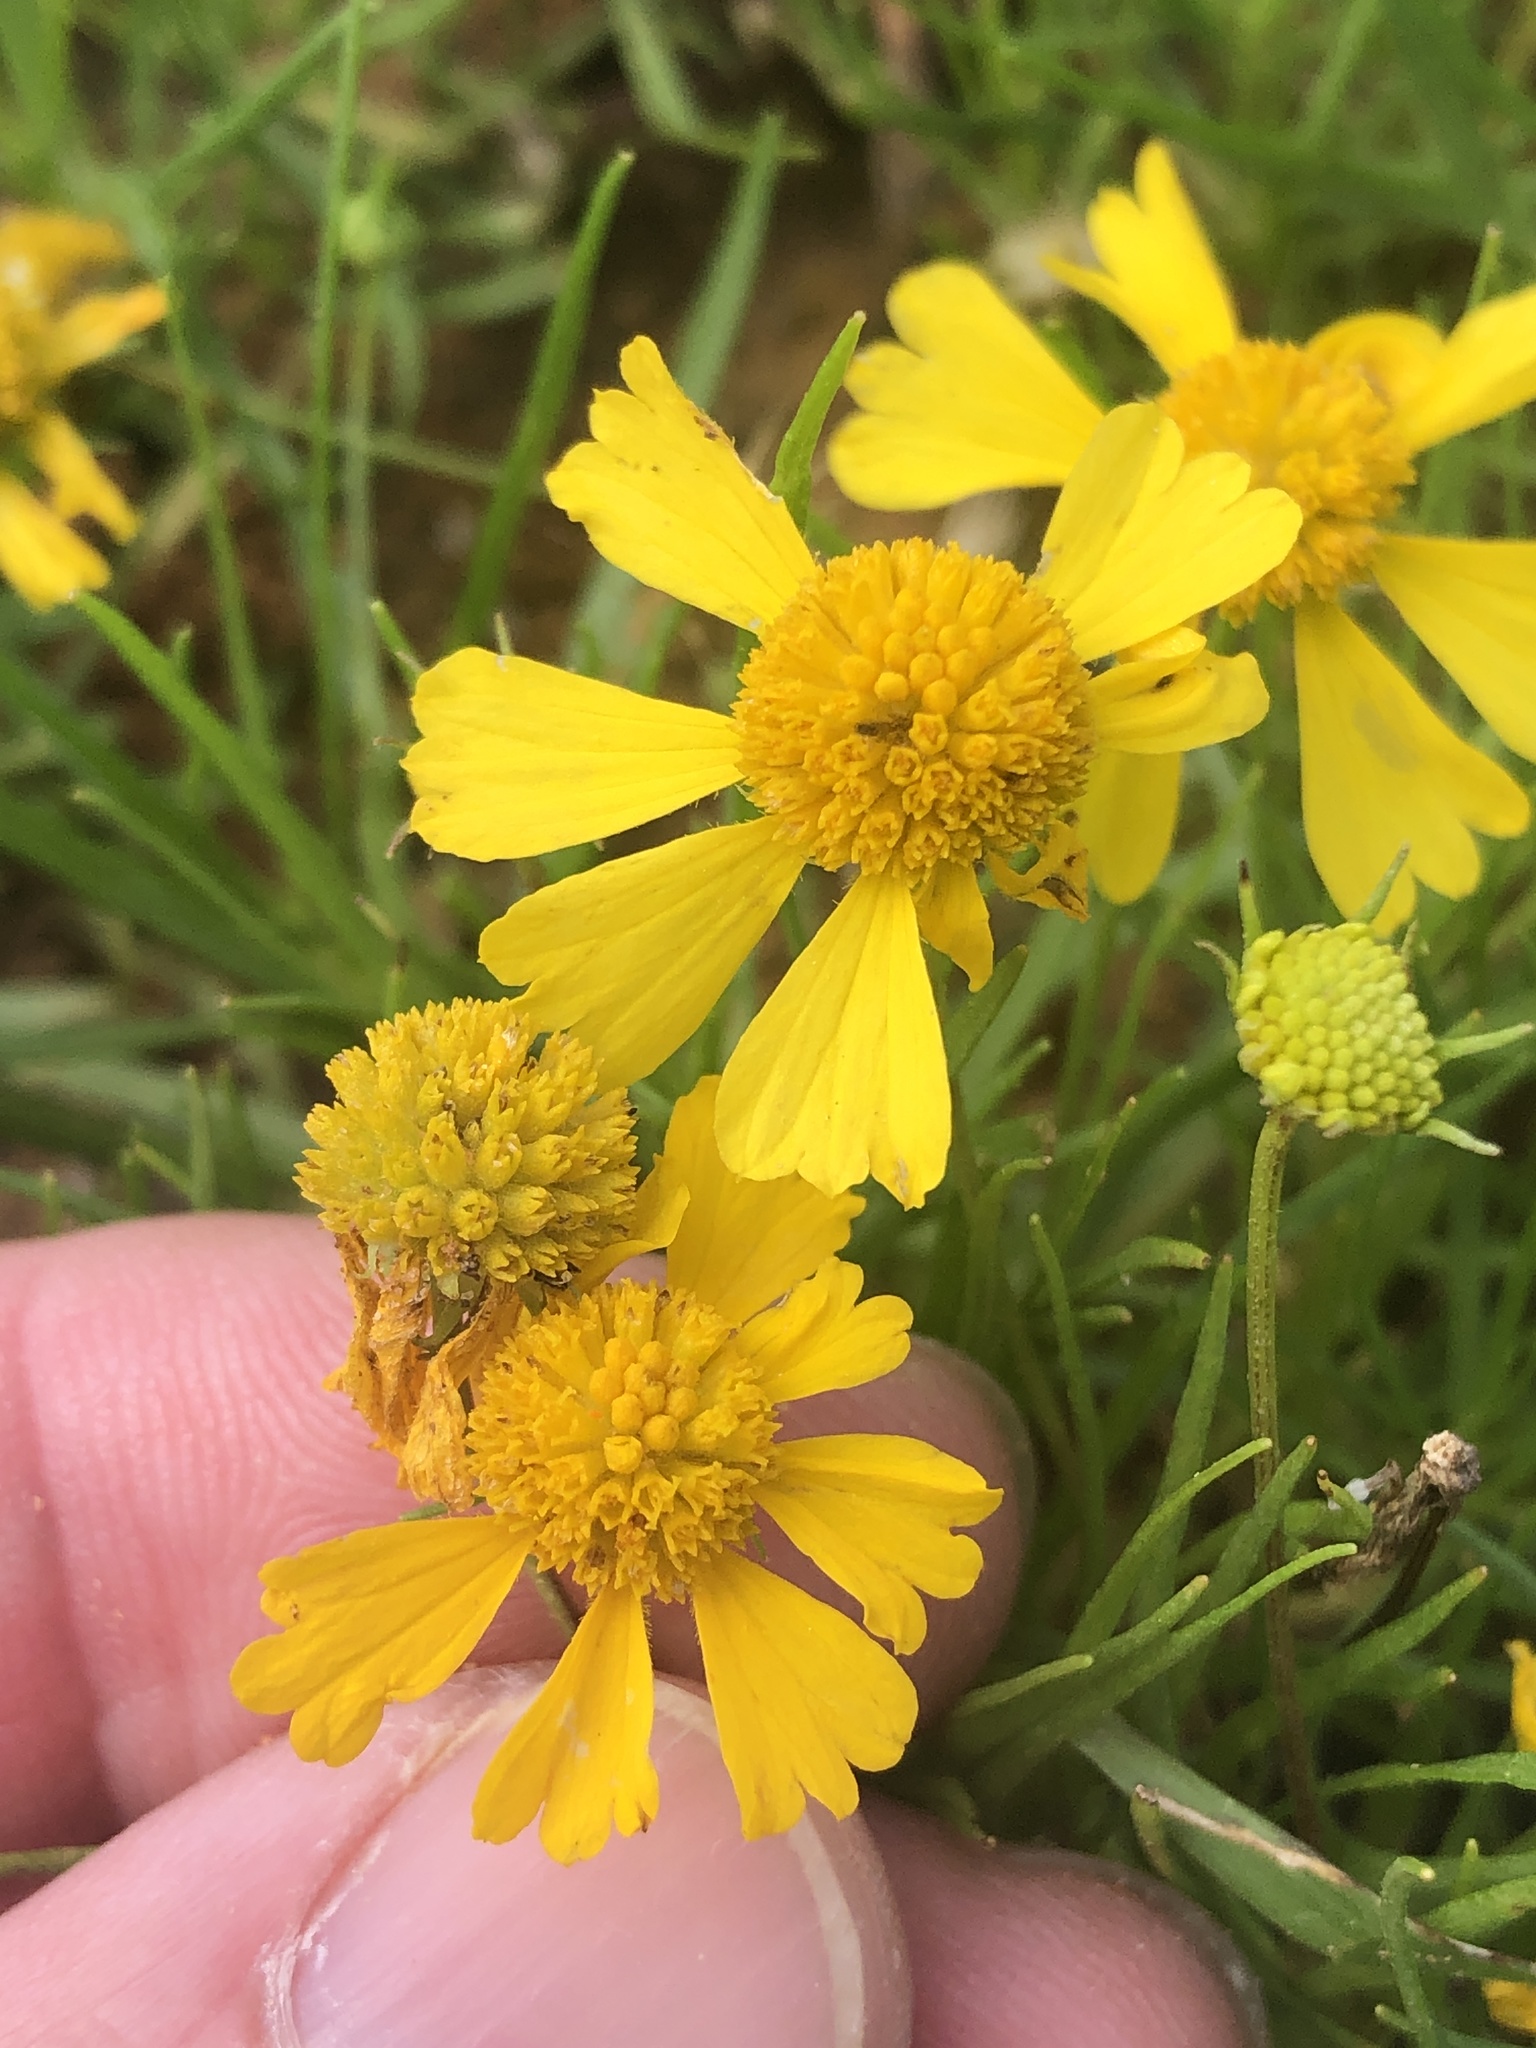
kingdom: Plantae
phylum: Tracheophyta
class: Magnoliopsida
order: Asterales
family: Asteraceae
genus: Helenium
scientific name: Helenium amarum
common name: Bitter sneezeweed
